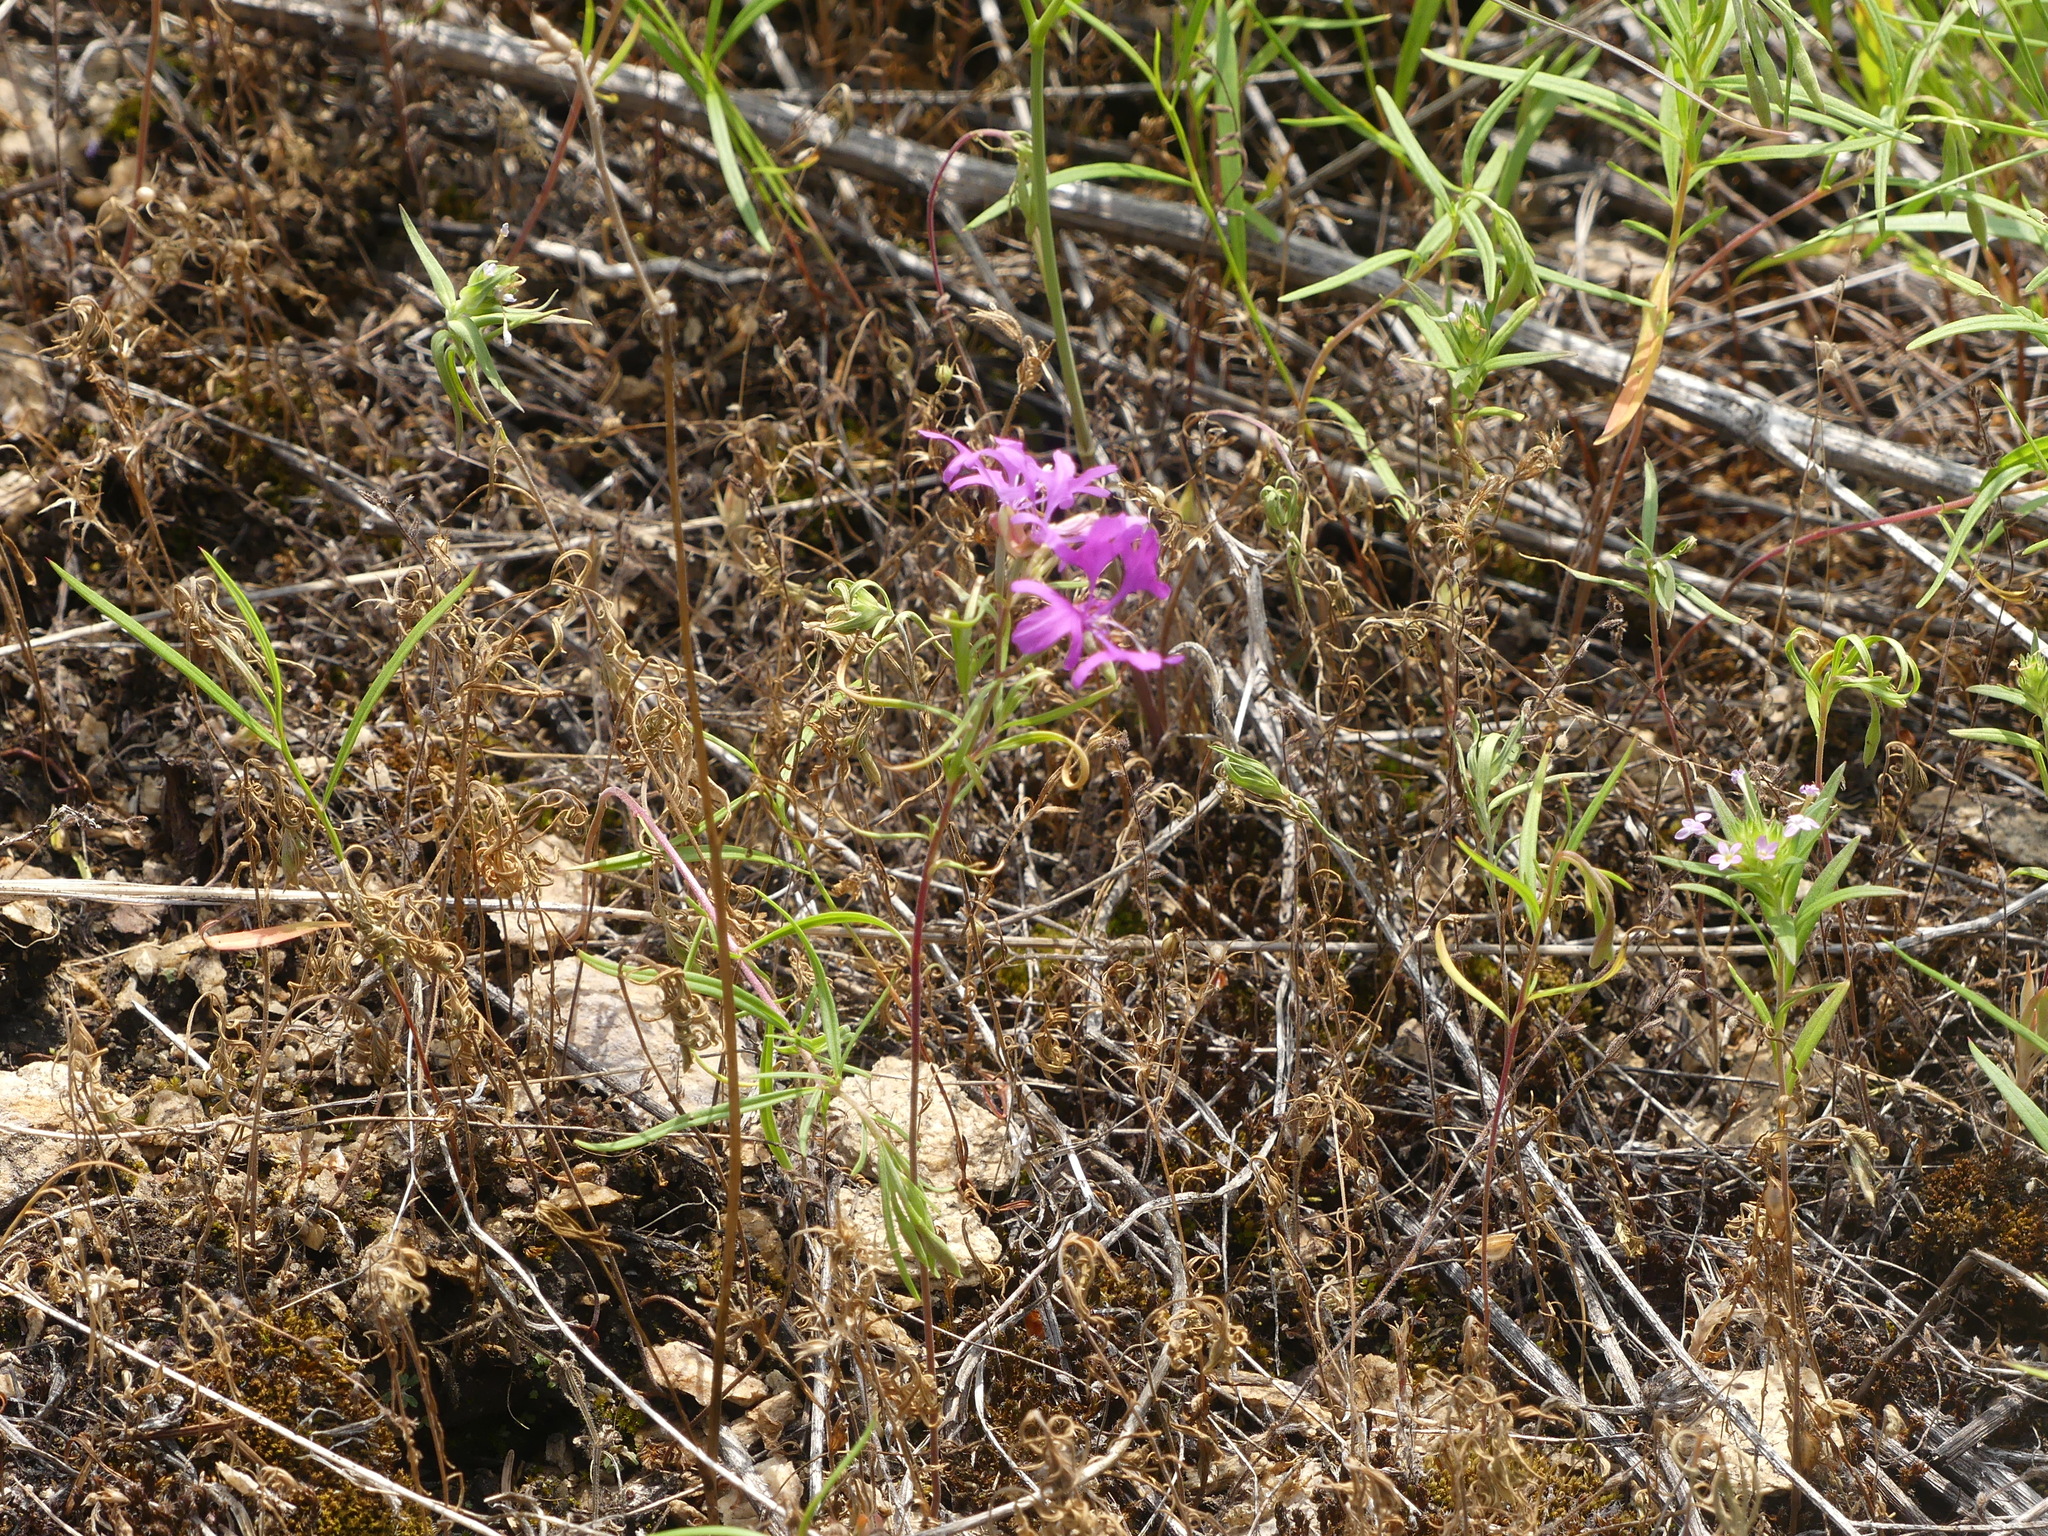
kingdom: Plantae
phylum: Tracheophyta
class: Magnoliopsida
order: Myrtales
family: Onagraceae
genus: Clarkia
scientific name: Clarkia pulchella
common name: Deer horn
